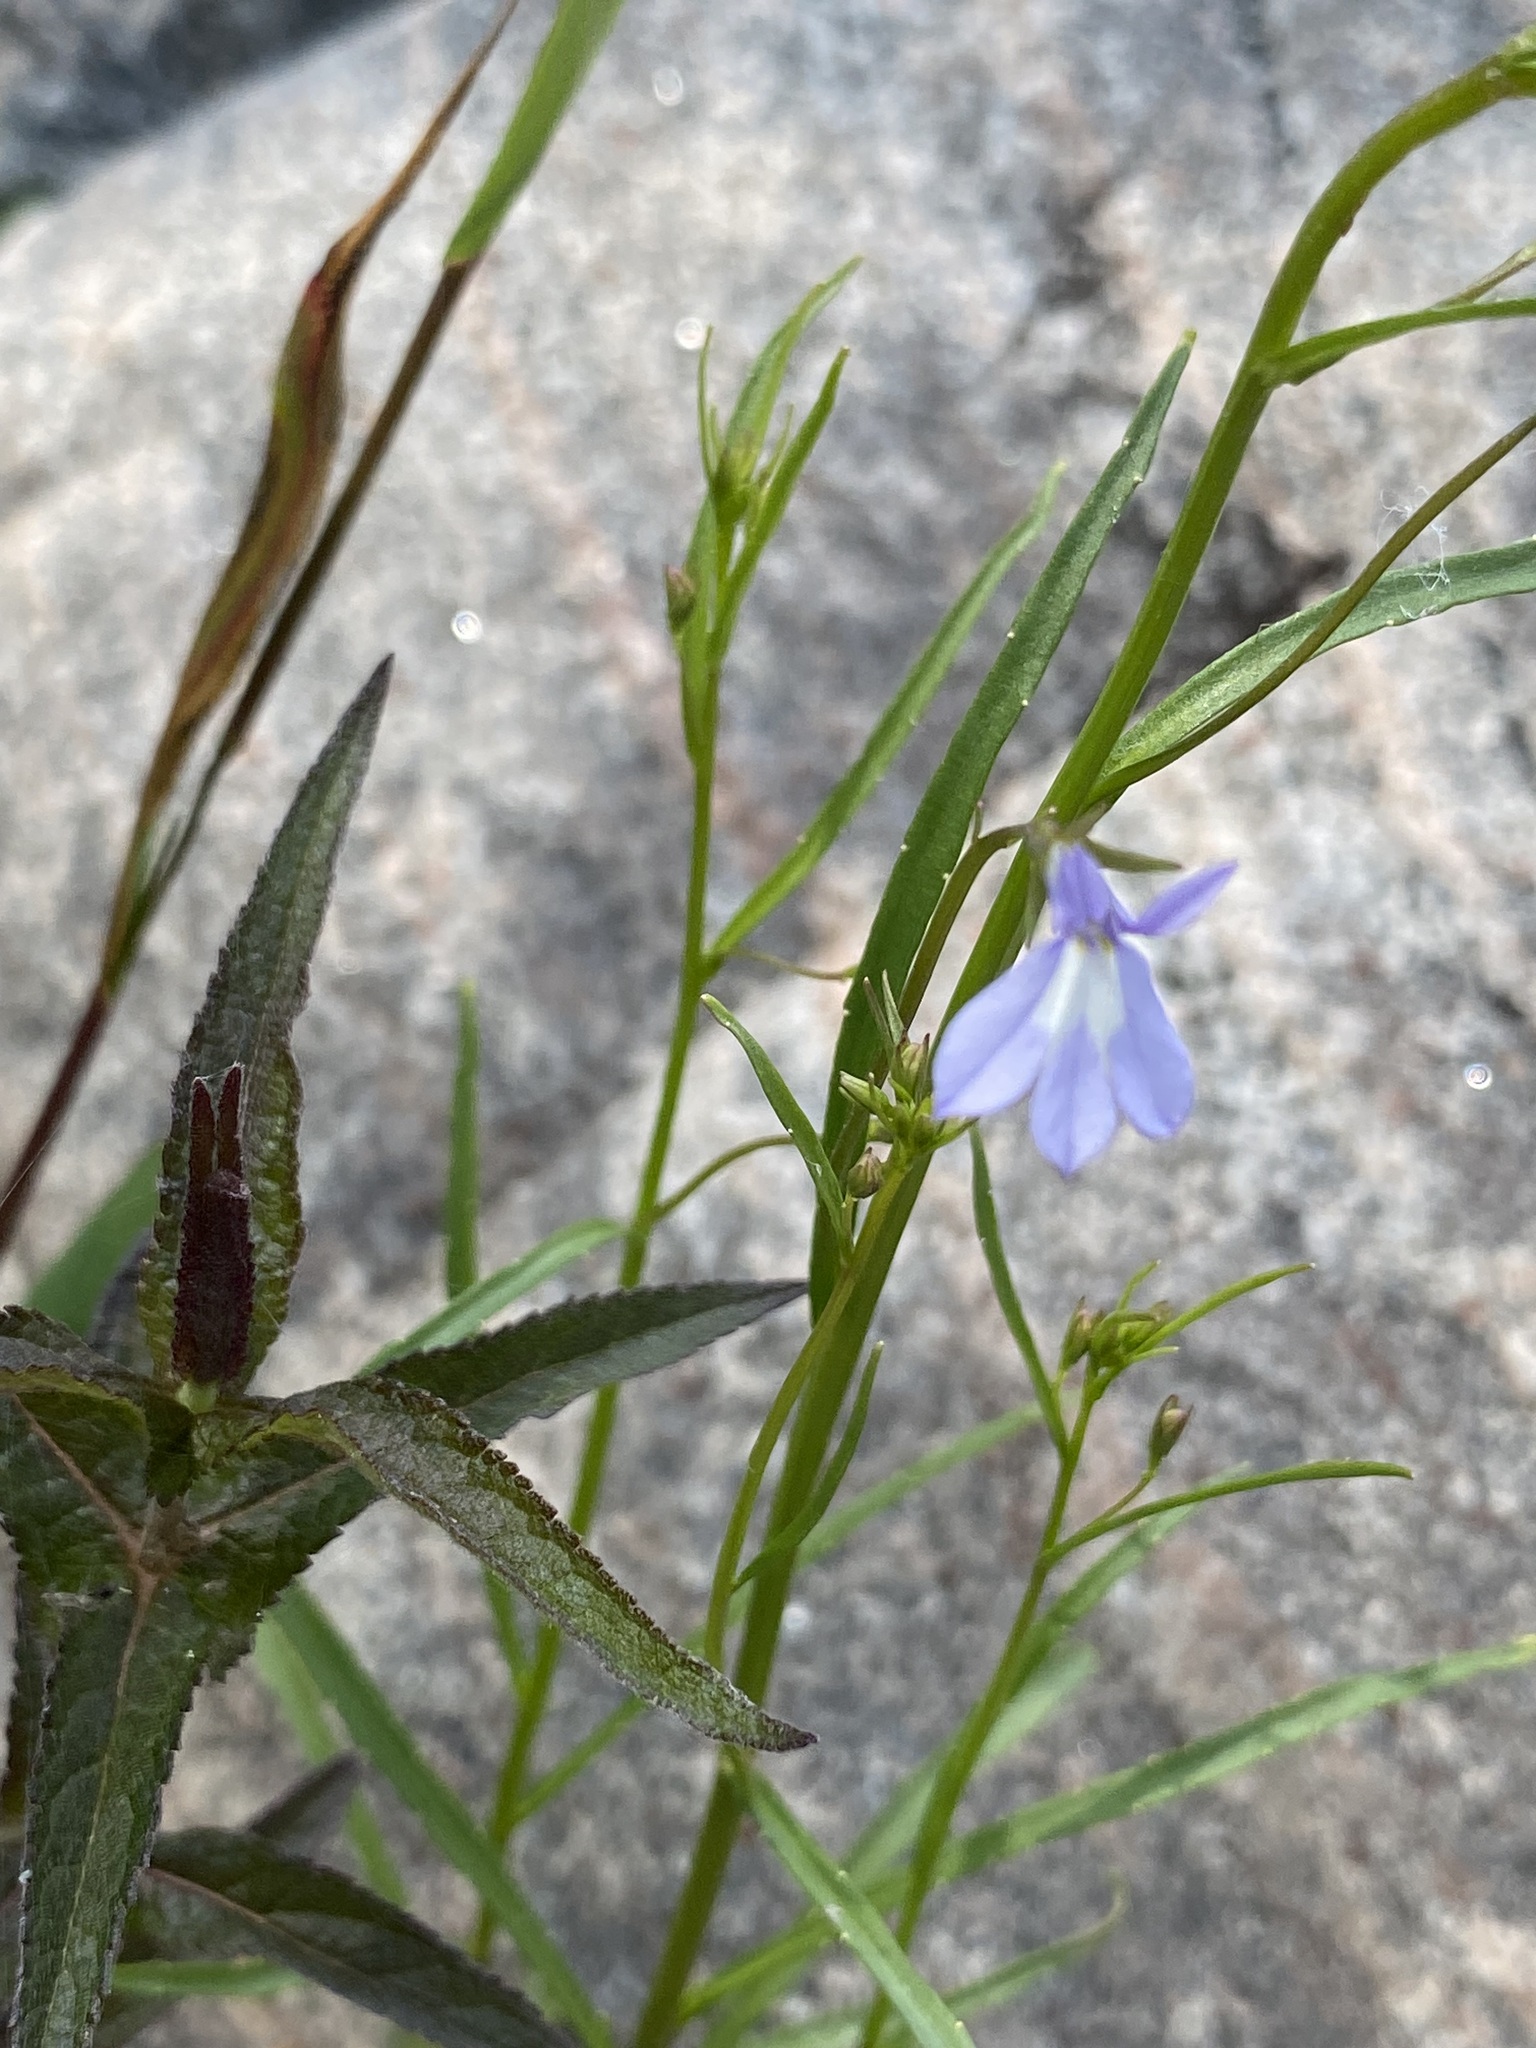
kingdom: Plantae
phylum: Tracheophyta
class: Magnoliopsida
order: Asterales
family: Campanulaceae
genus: Lobelia
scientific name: Lobelia kalmii
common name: Kalm's lobelia
